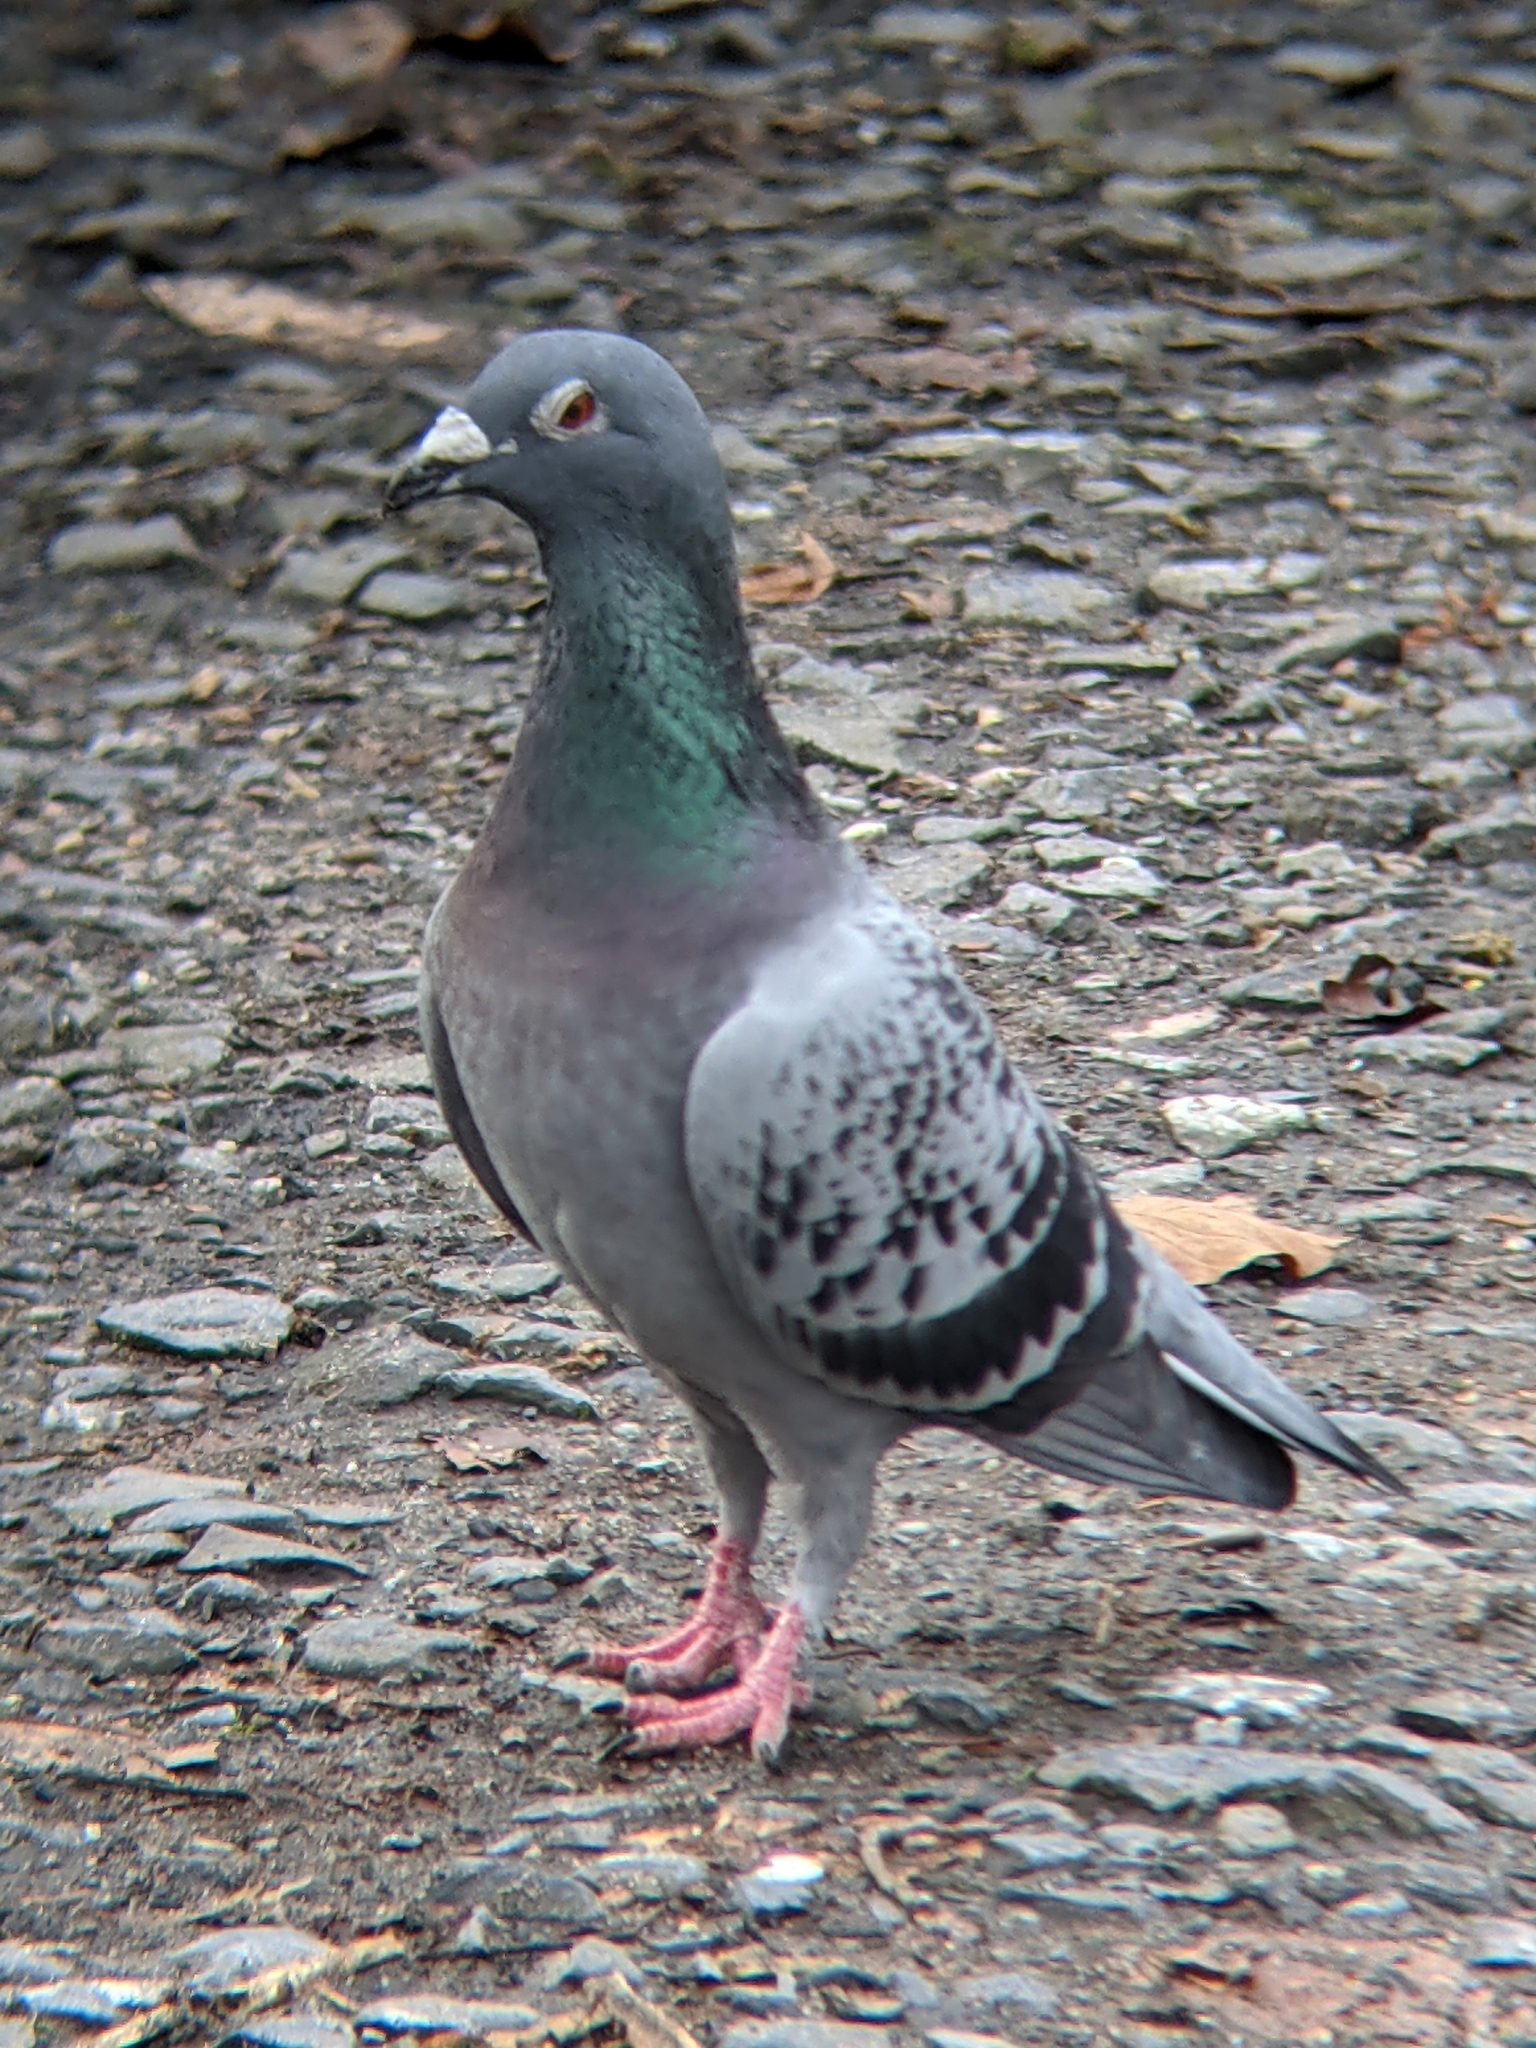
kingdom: Animalia
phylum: Chordata
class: Aves
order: Columbiformes
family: Columbidae
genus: Columba
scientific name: Columba livia
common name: Rock pigeon
